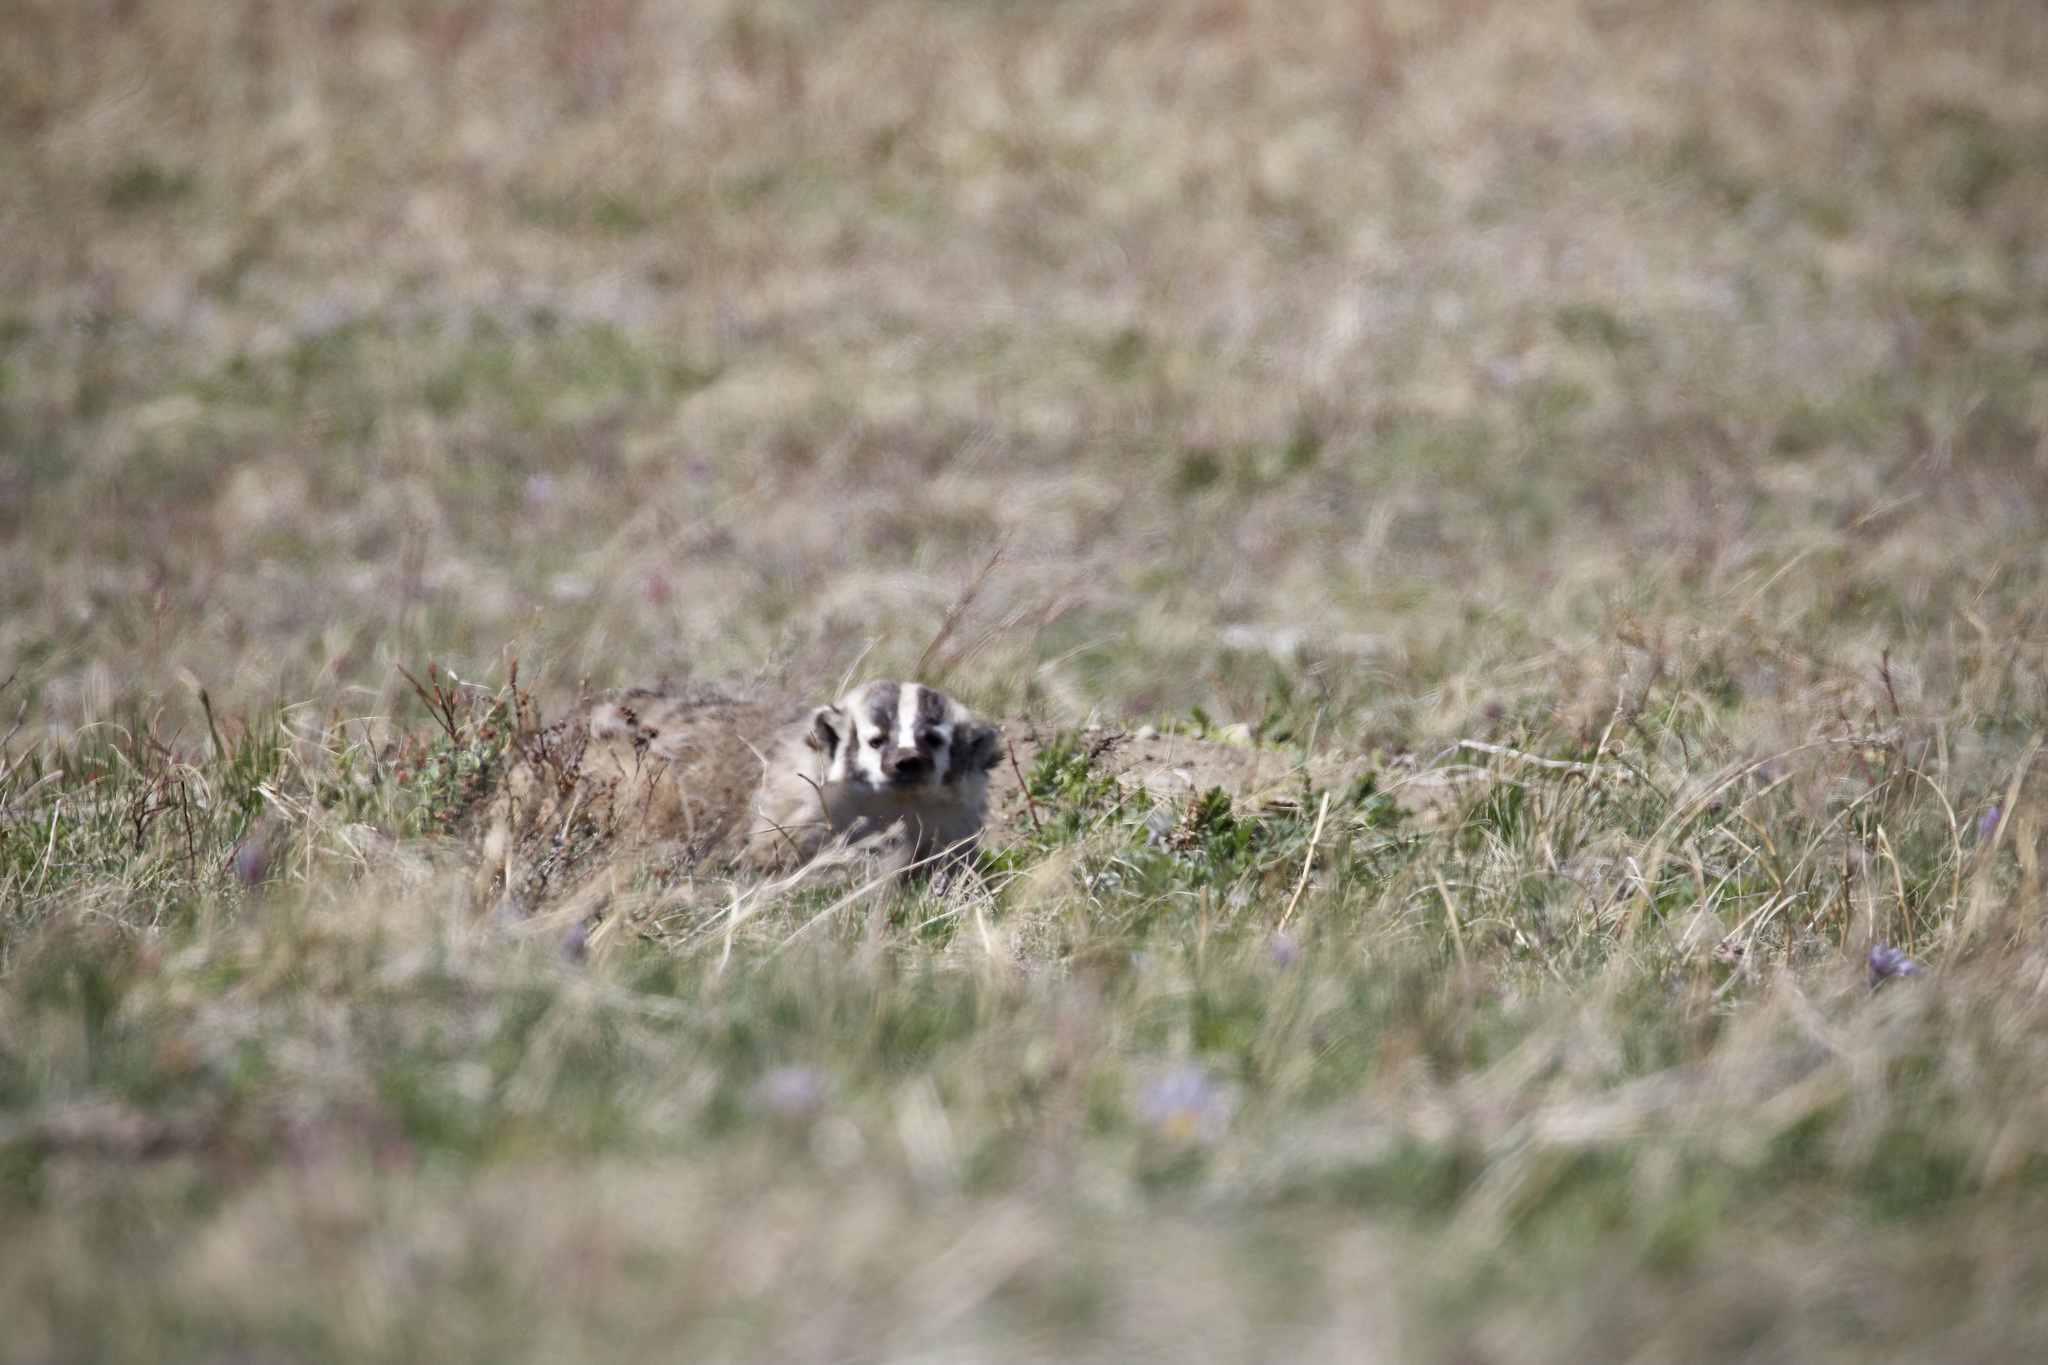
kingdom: Animalia
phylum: Chordata
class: Mammalia
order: Carnivora
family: Mustelidae
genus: Taxidea
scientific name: Taxidea taxus
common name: American badger
